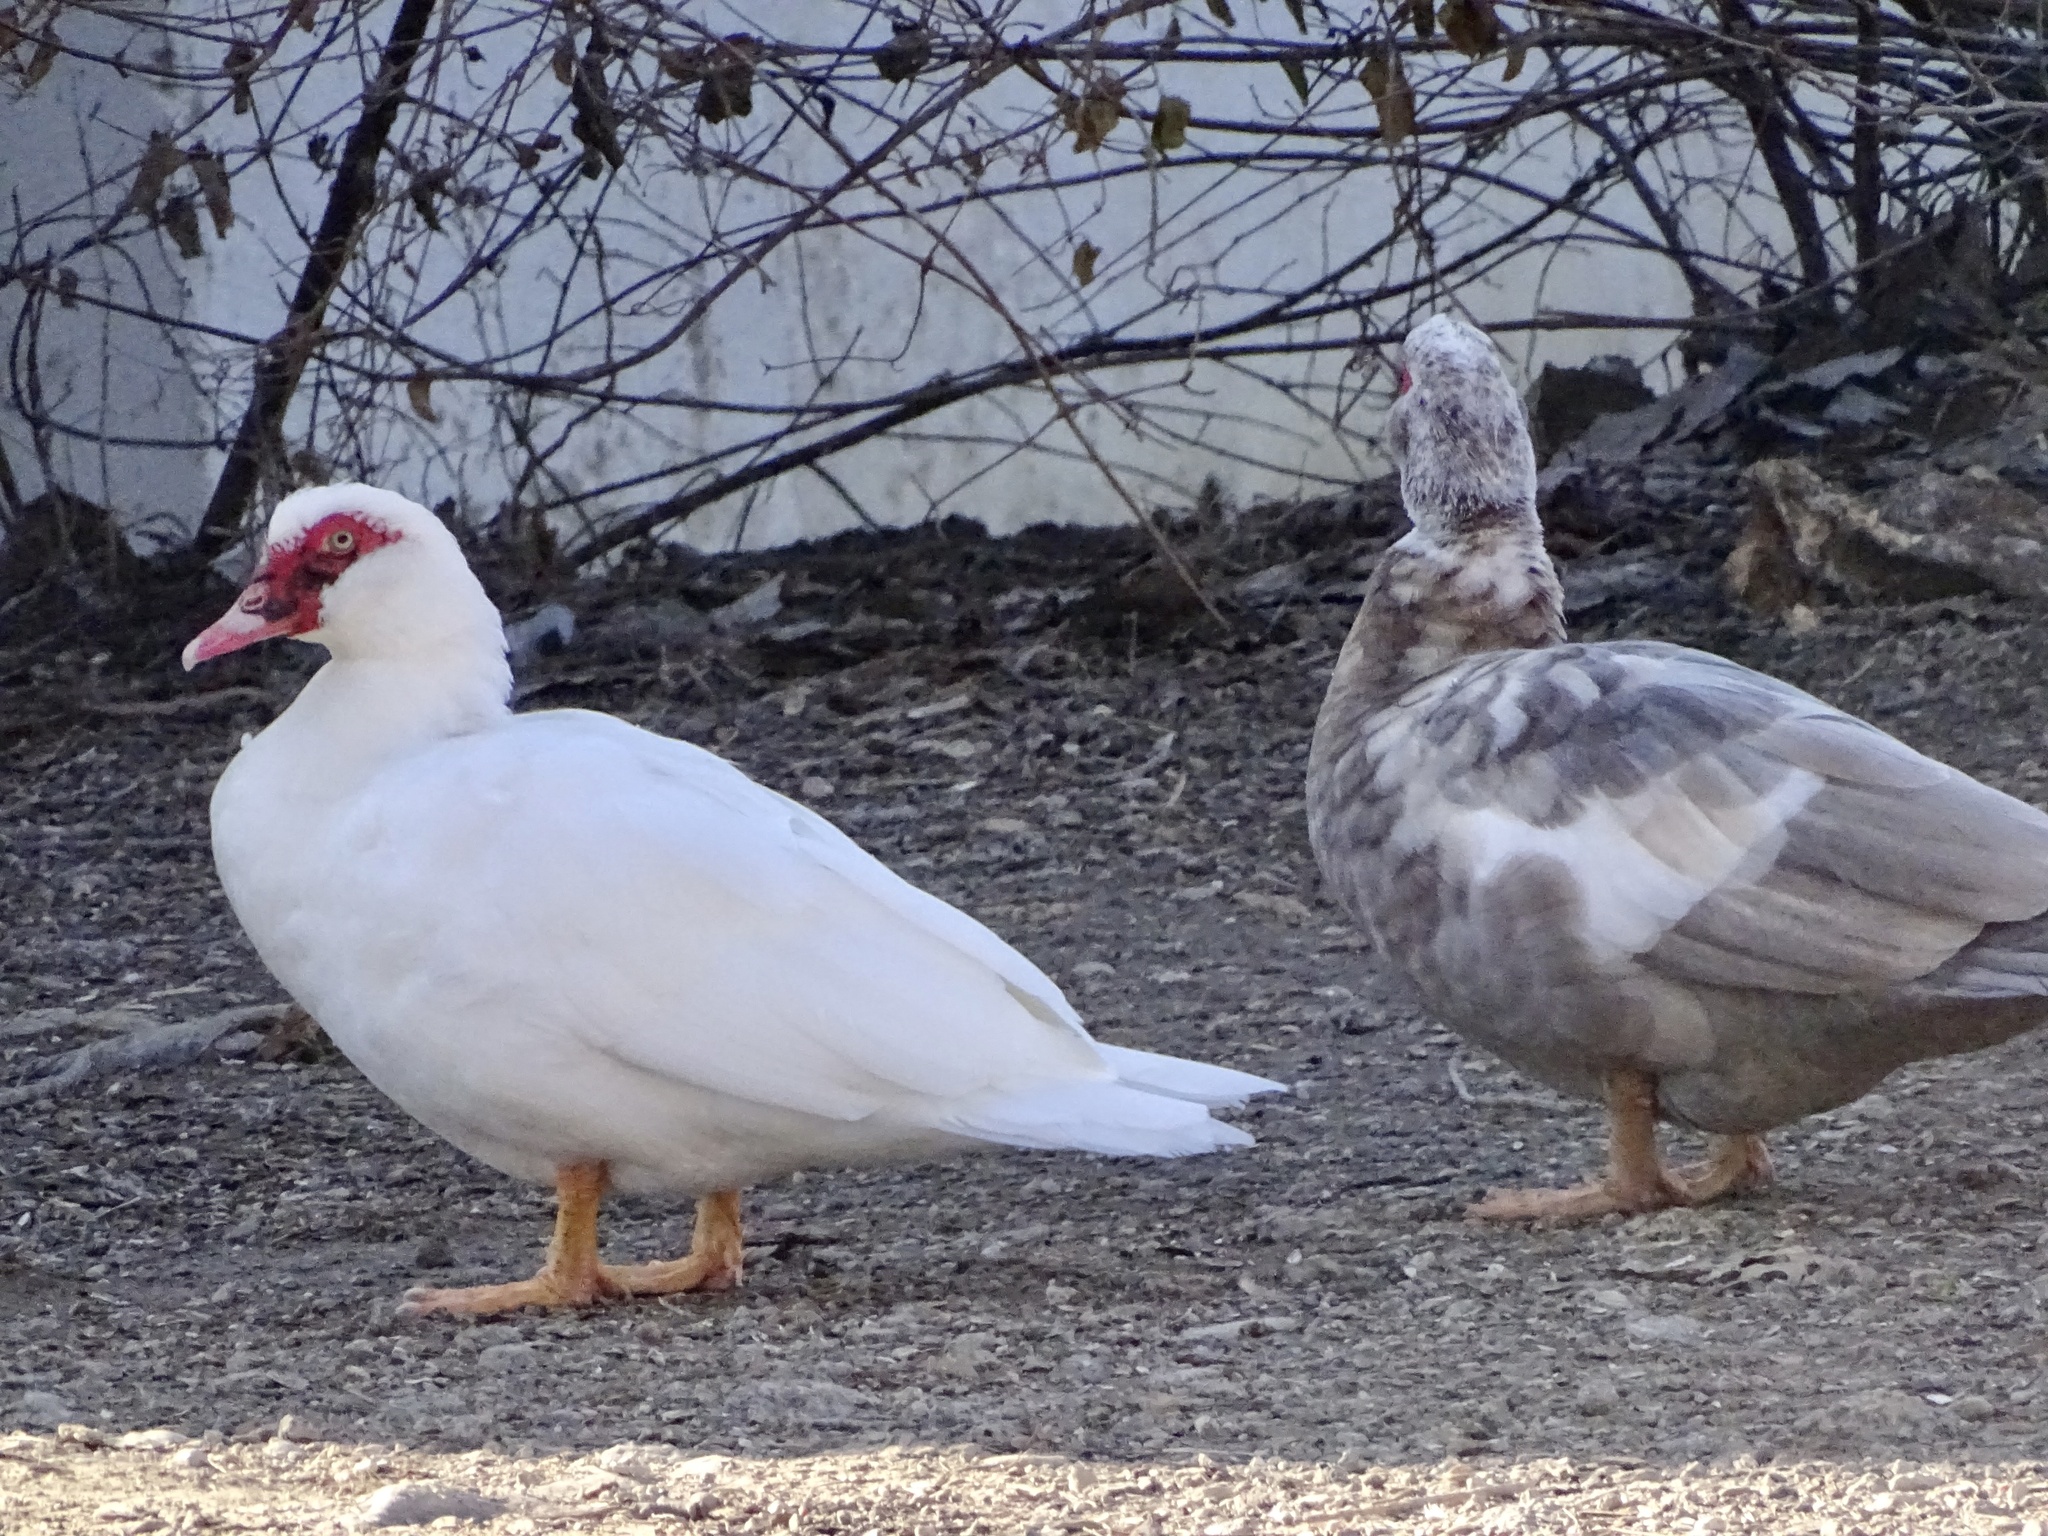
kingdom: Animalia
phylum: Chordata
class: Aves
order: Anseriformes
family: Anatidae
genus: Cairina
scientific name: Cairina moschata
